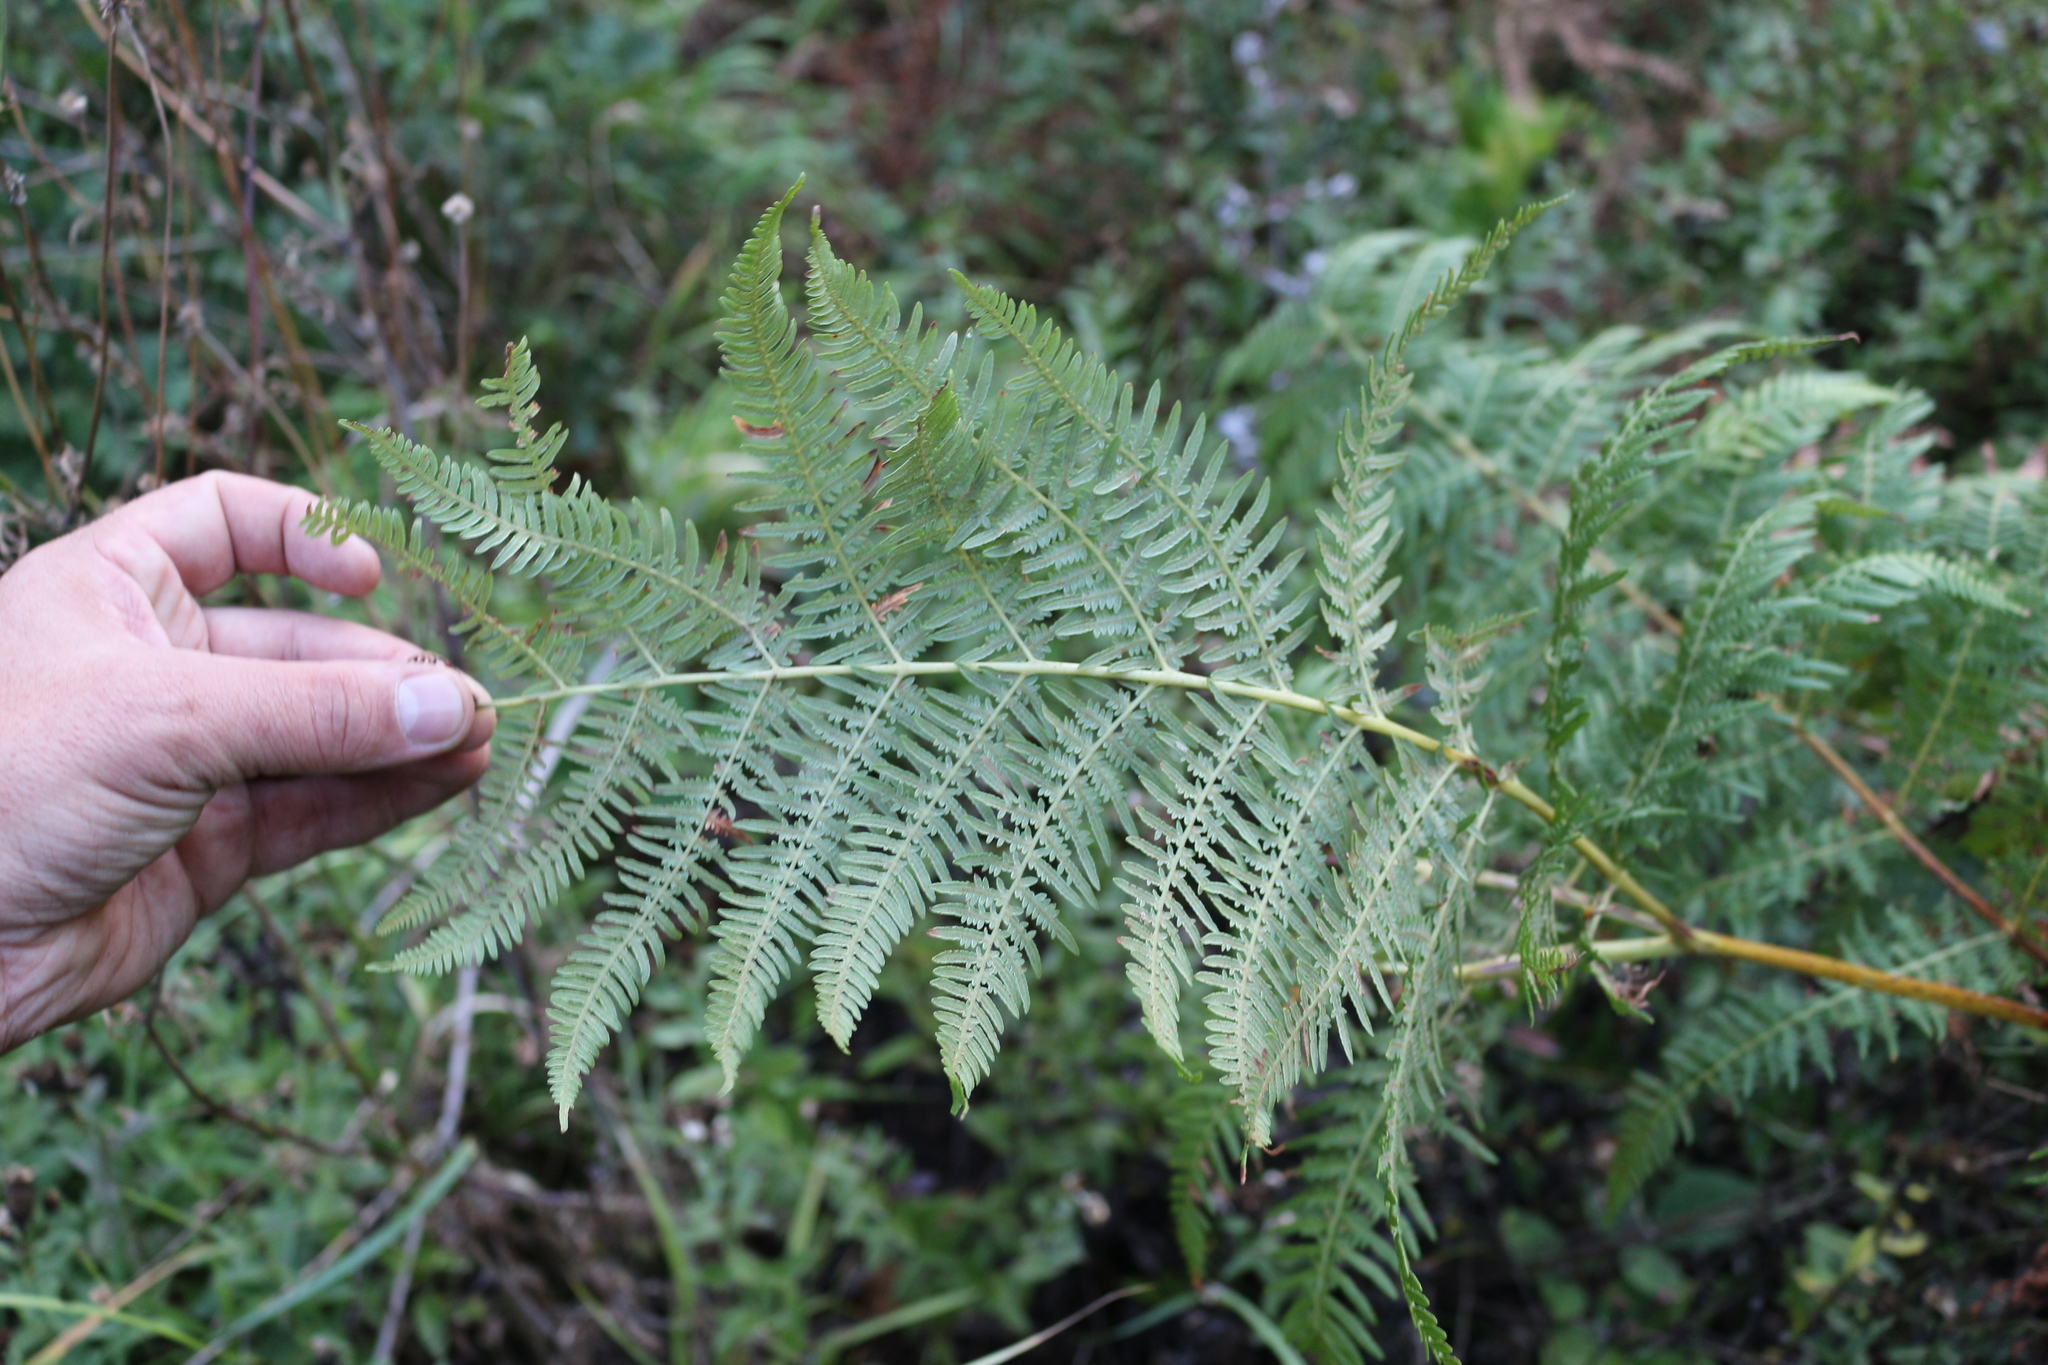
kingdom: Plantae
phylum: Tracheophyta
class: Polypodiopsida
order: Polypodiales
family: Dennstaedtiaceae
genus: Pteridium
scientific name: Pteridium tauricum
